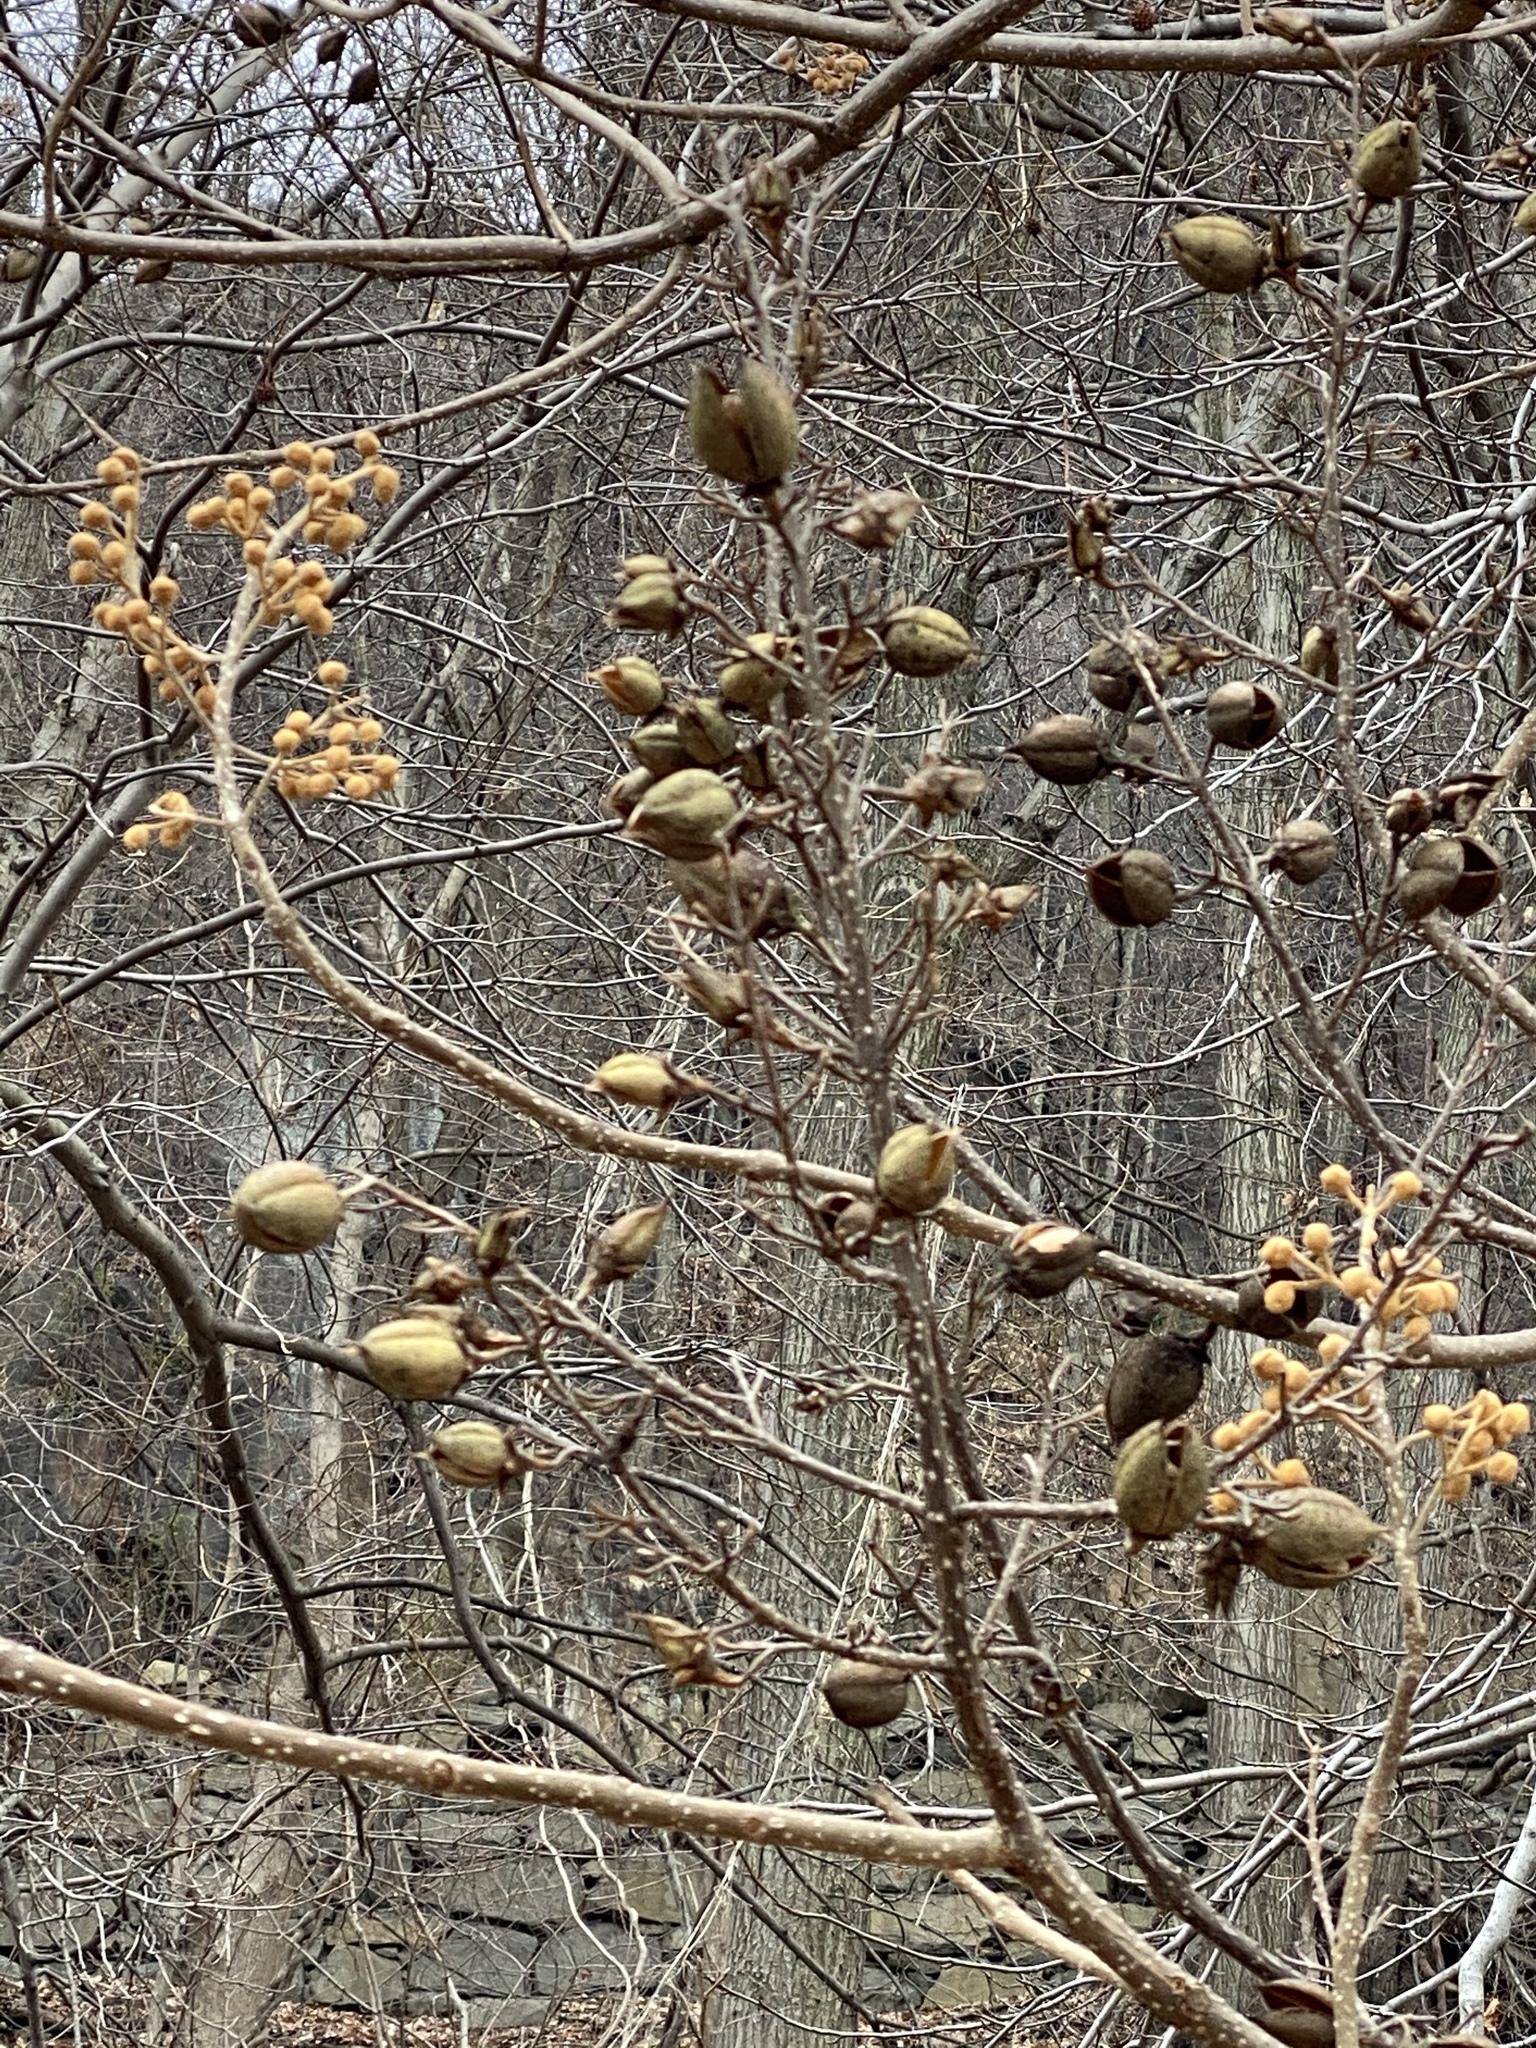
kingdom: Plantae
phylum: Tracheophyta
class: Magnoliopsida
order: Lamiales
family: Paulowniaceae
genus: Paulownia
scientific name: Paulownia tomentosa
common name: Foxglove-tree
